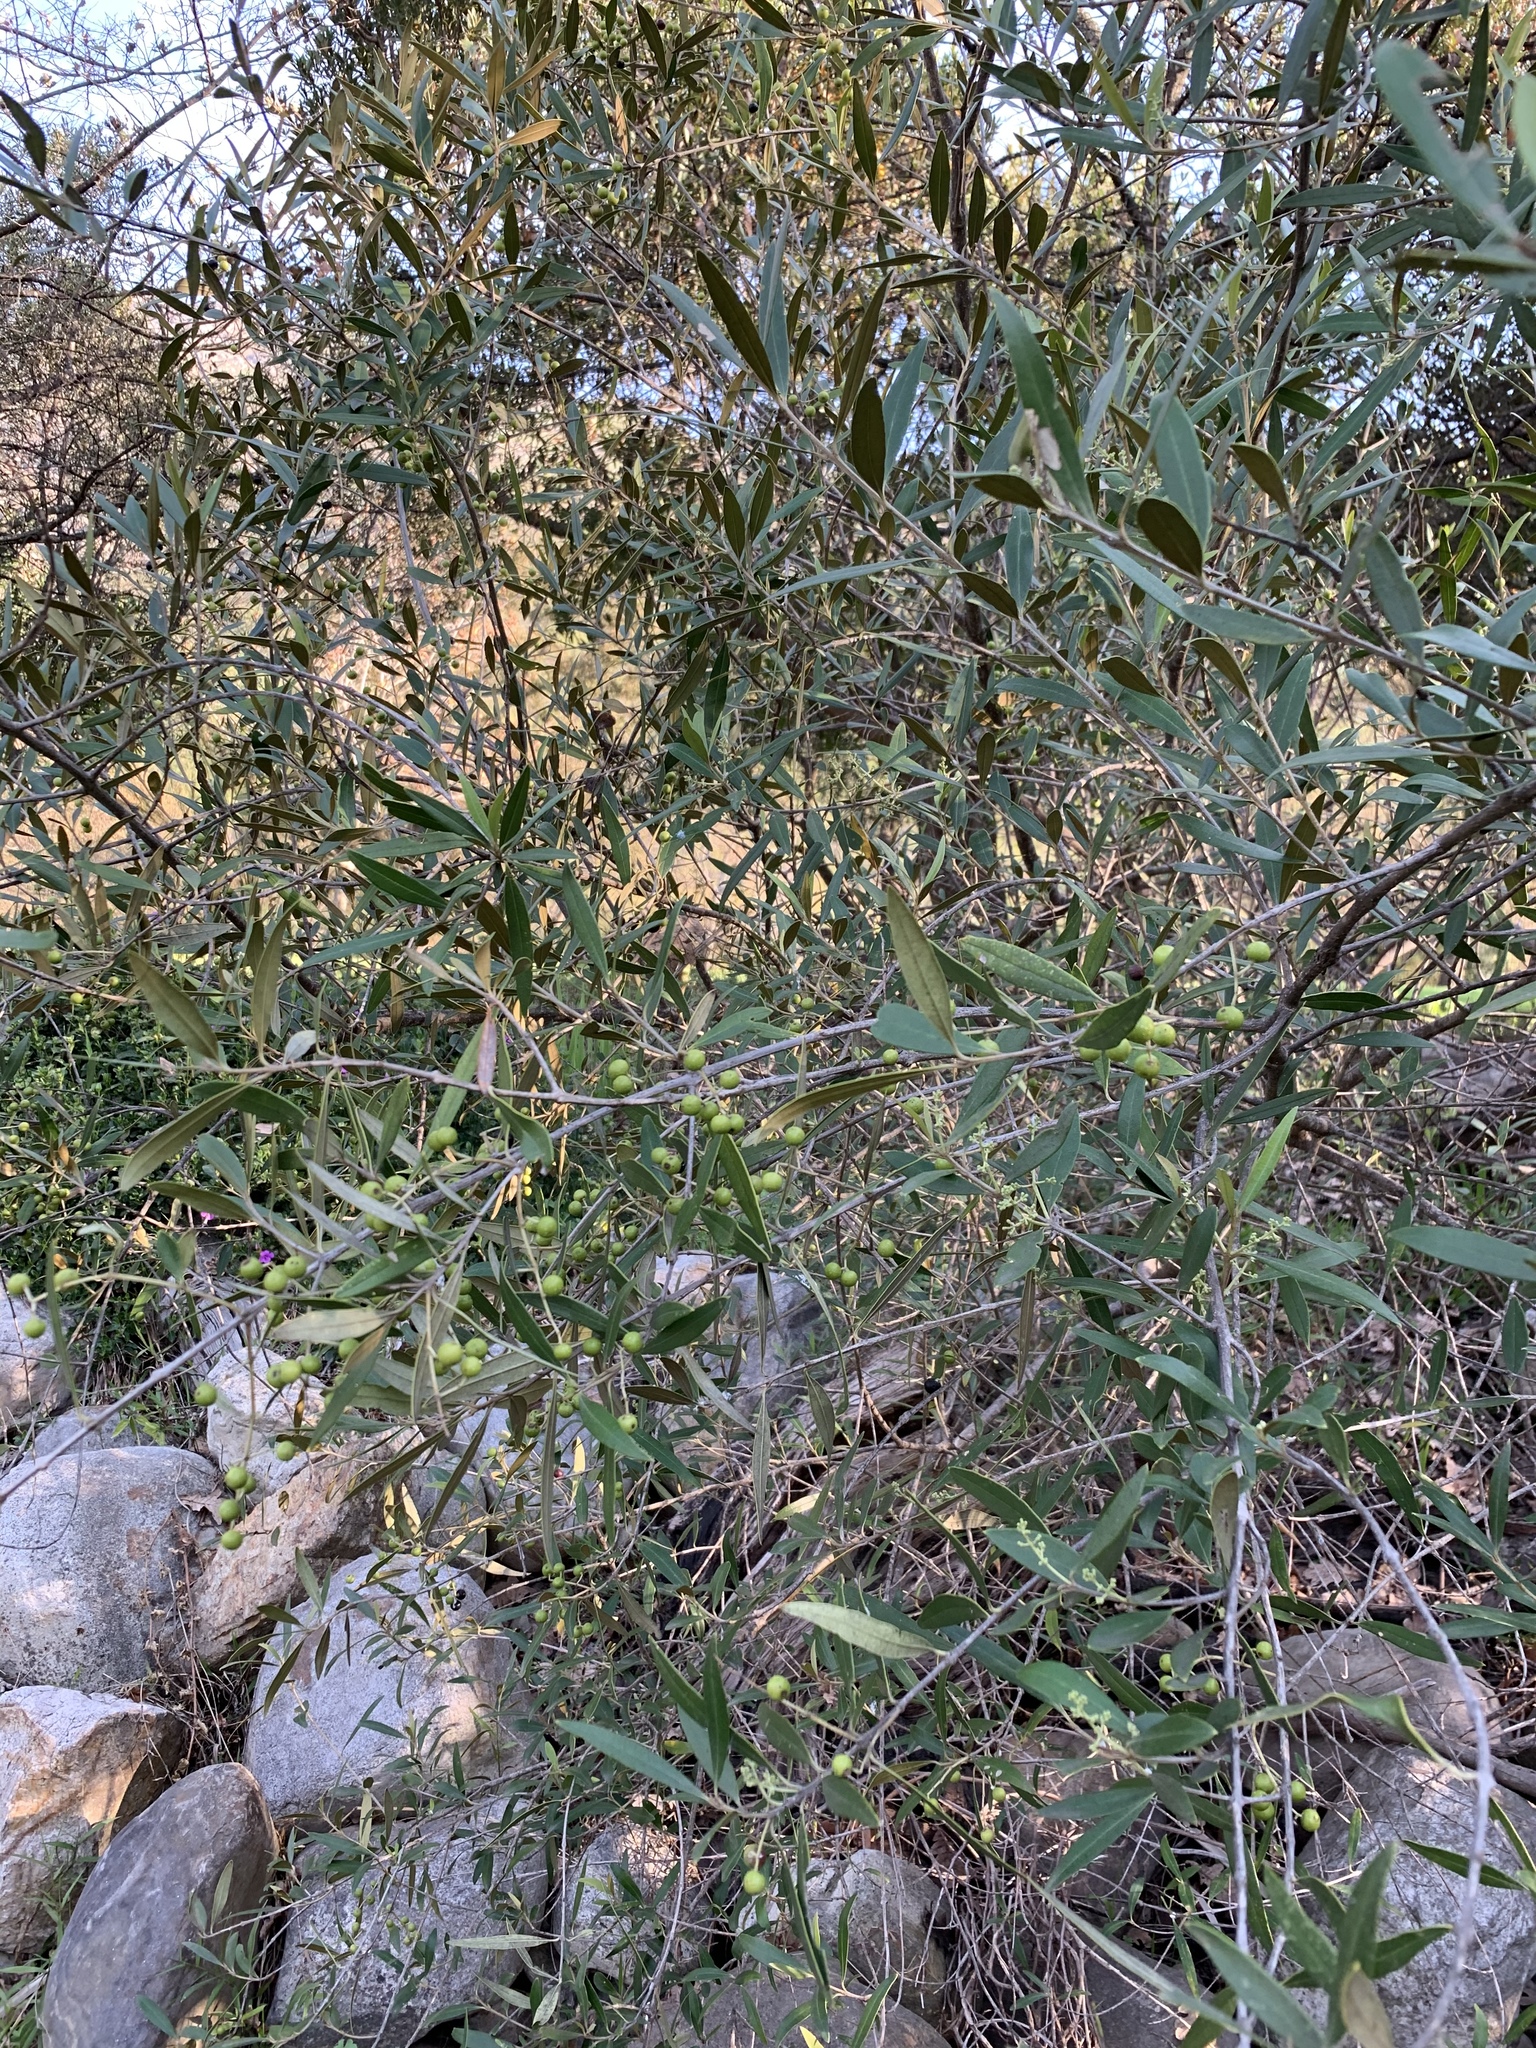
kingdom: Plantae
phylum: Tracheophyta
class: Magnoliopsida
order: Lamiales
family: Oleaceae
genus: Olea
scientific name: Olea europaea
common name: Olive
